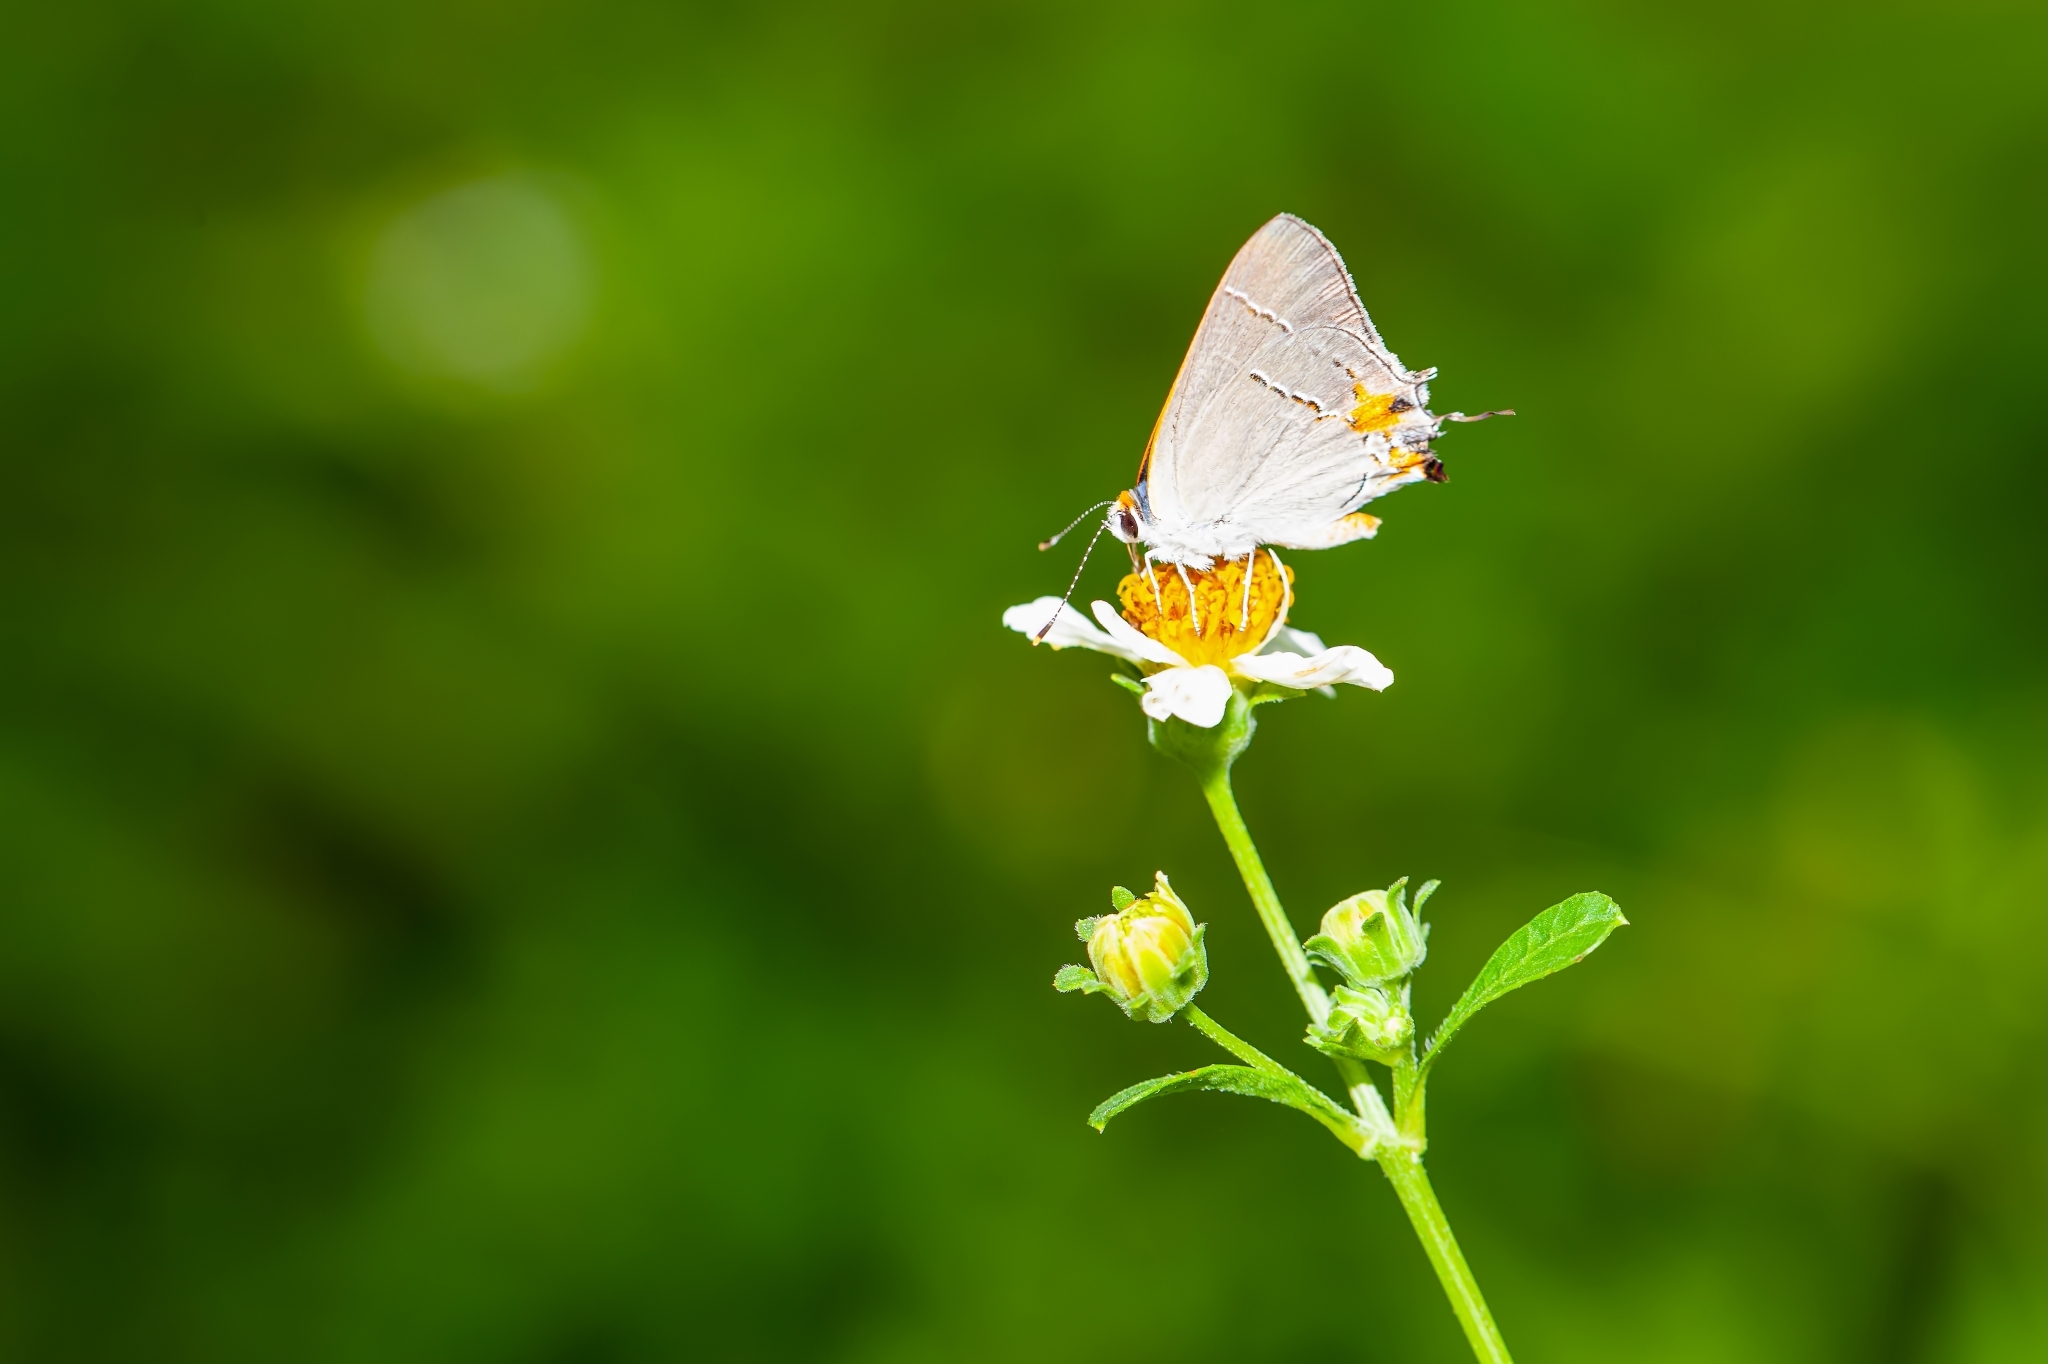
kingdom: Animalia
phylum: Arthropoda
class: Insecta
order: Lepidoptera
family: Lycaenidae
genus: Strymon
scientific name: Strymon melinus
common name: Gray hairstreak
